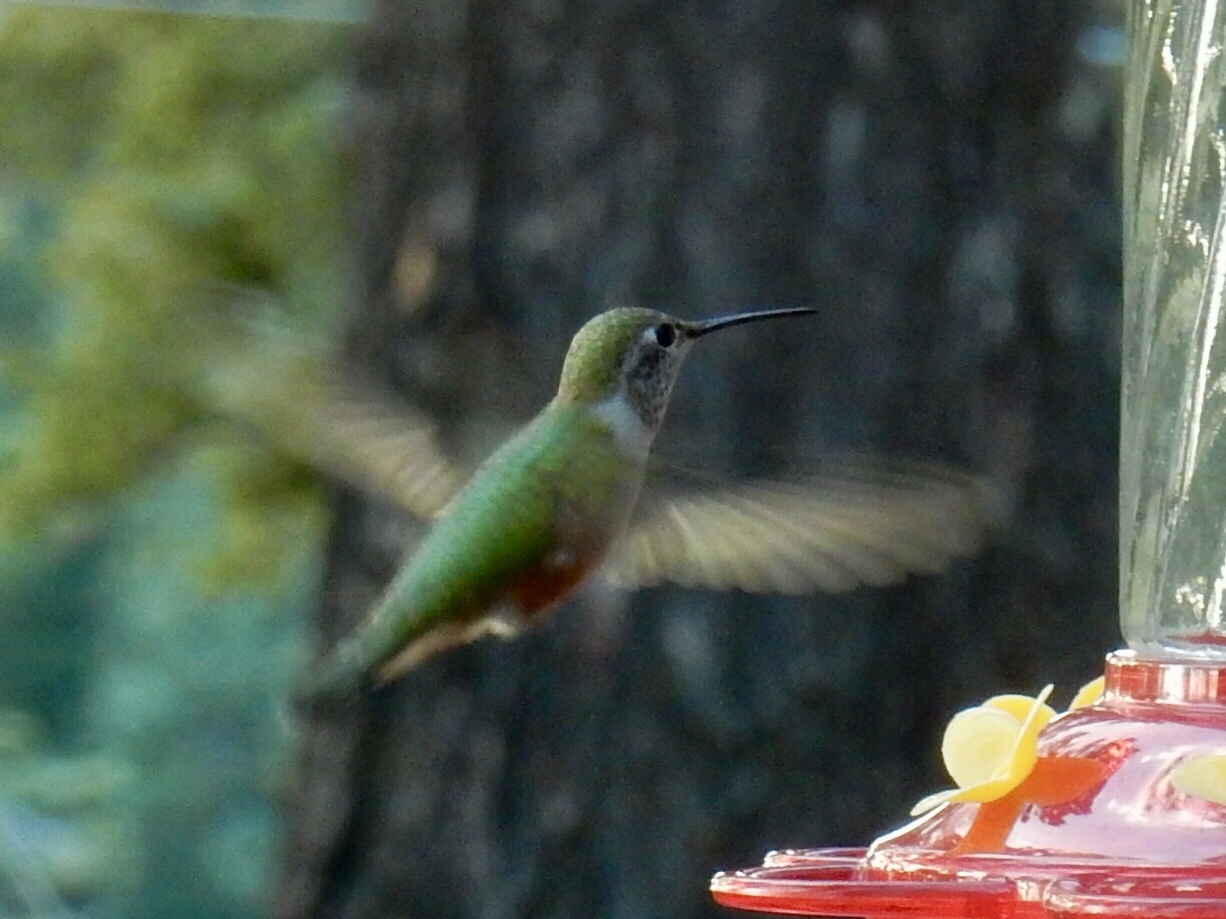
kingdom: Animalia
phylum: Chordata
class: Aves
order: Apodiformes
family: Trochilidae
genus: Selasphorus
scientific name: Selasphorus platycercus
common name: Broad-tailed hummingbird
